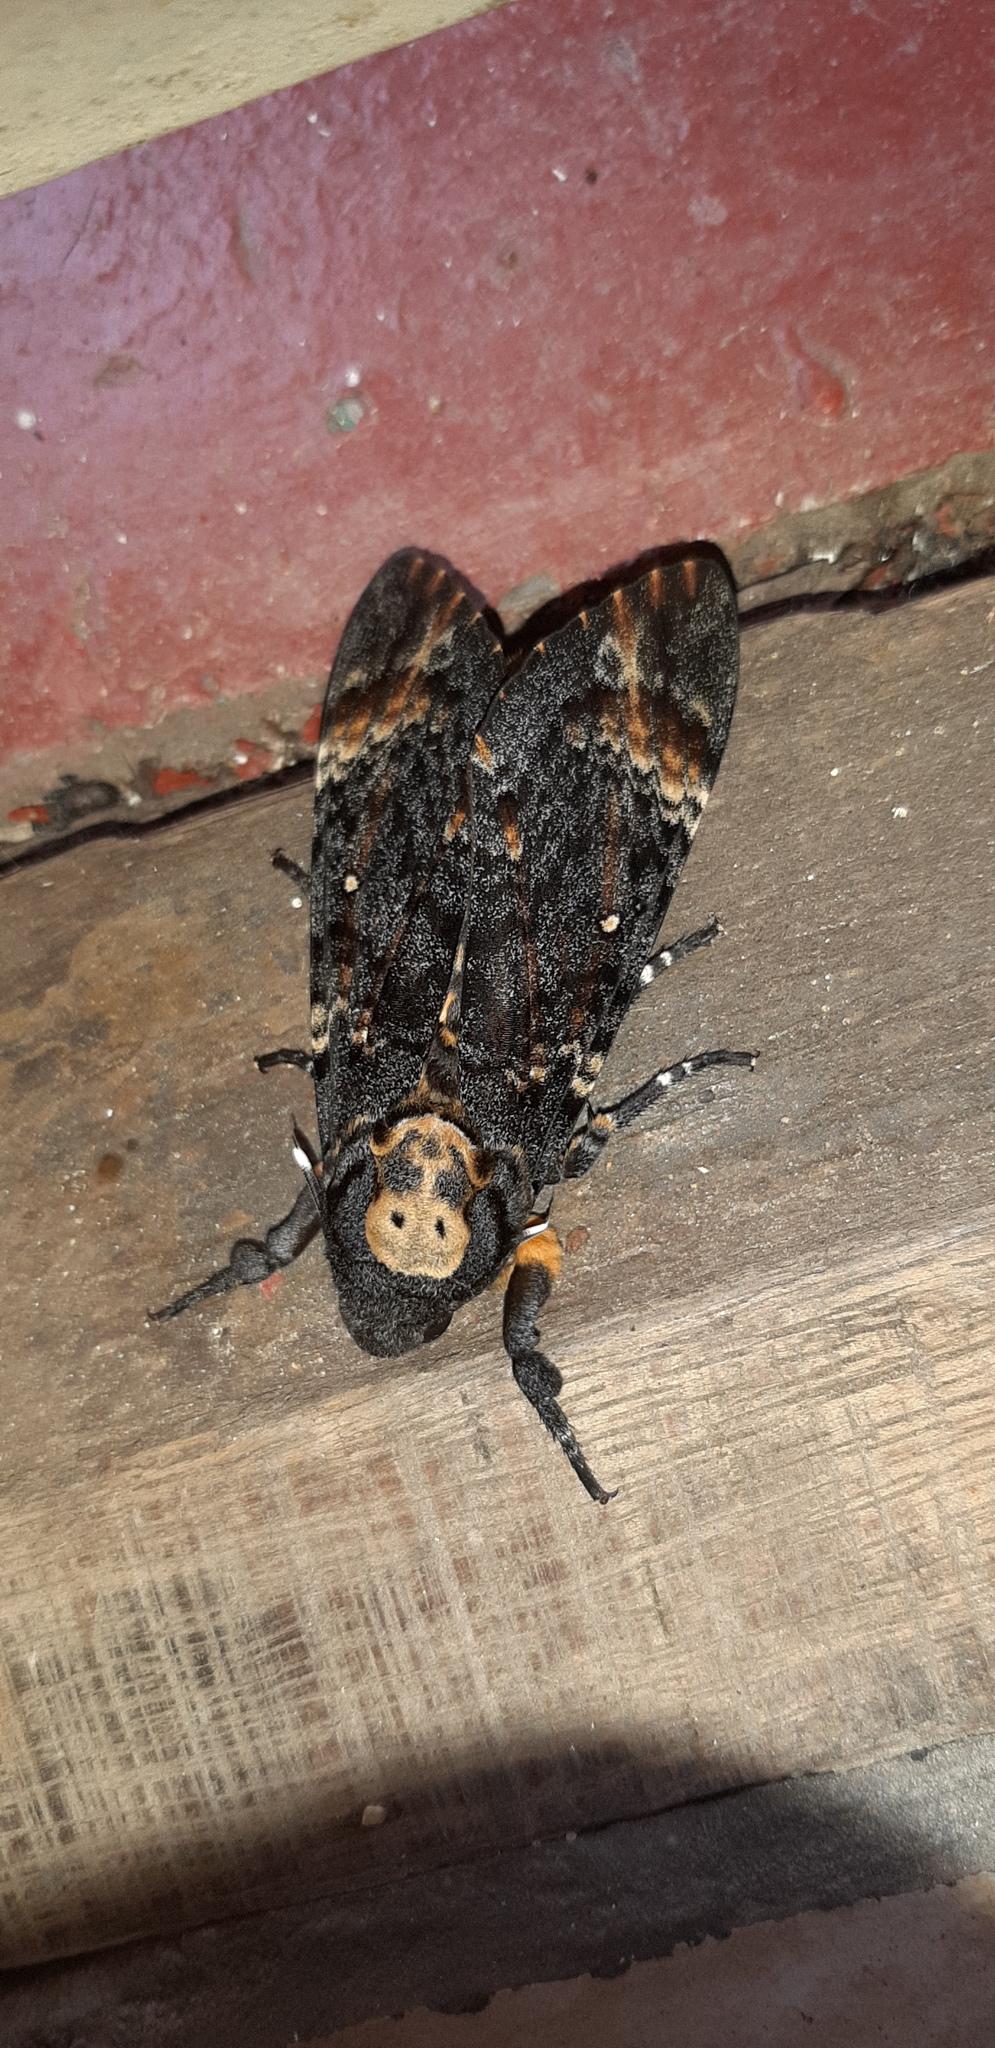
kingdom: Animalia
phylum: Arthropoda
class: Insecta
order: Lepidoptera
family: Sphingidae
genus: Acherontia
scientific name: Acherontia atropos
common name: Death's-head hawk moth
